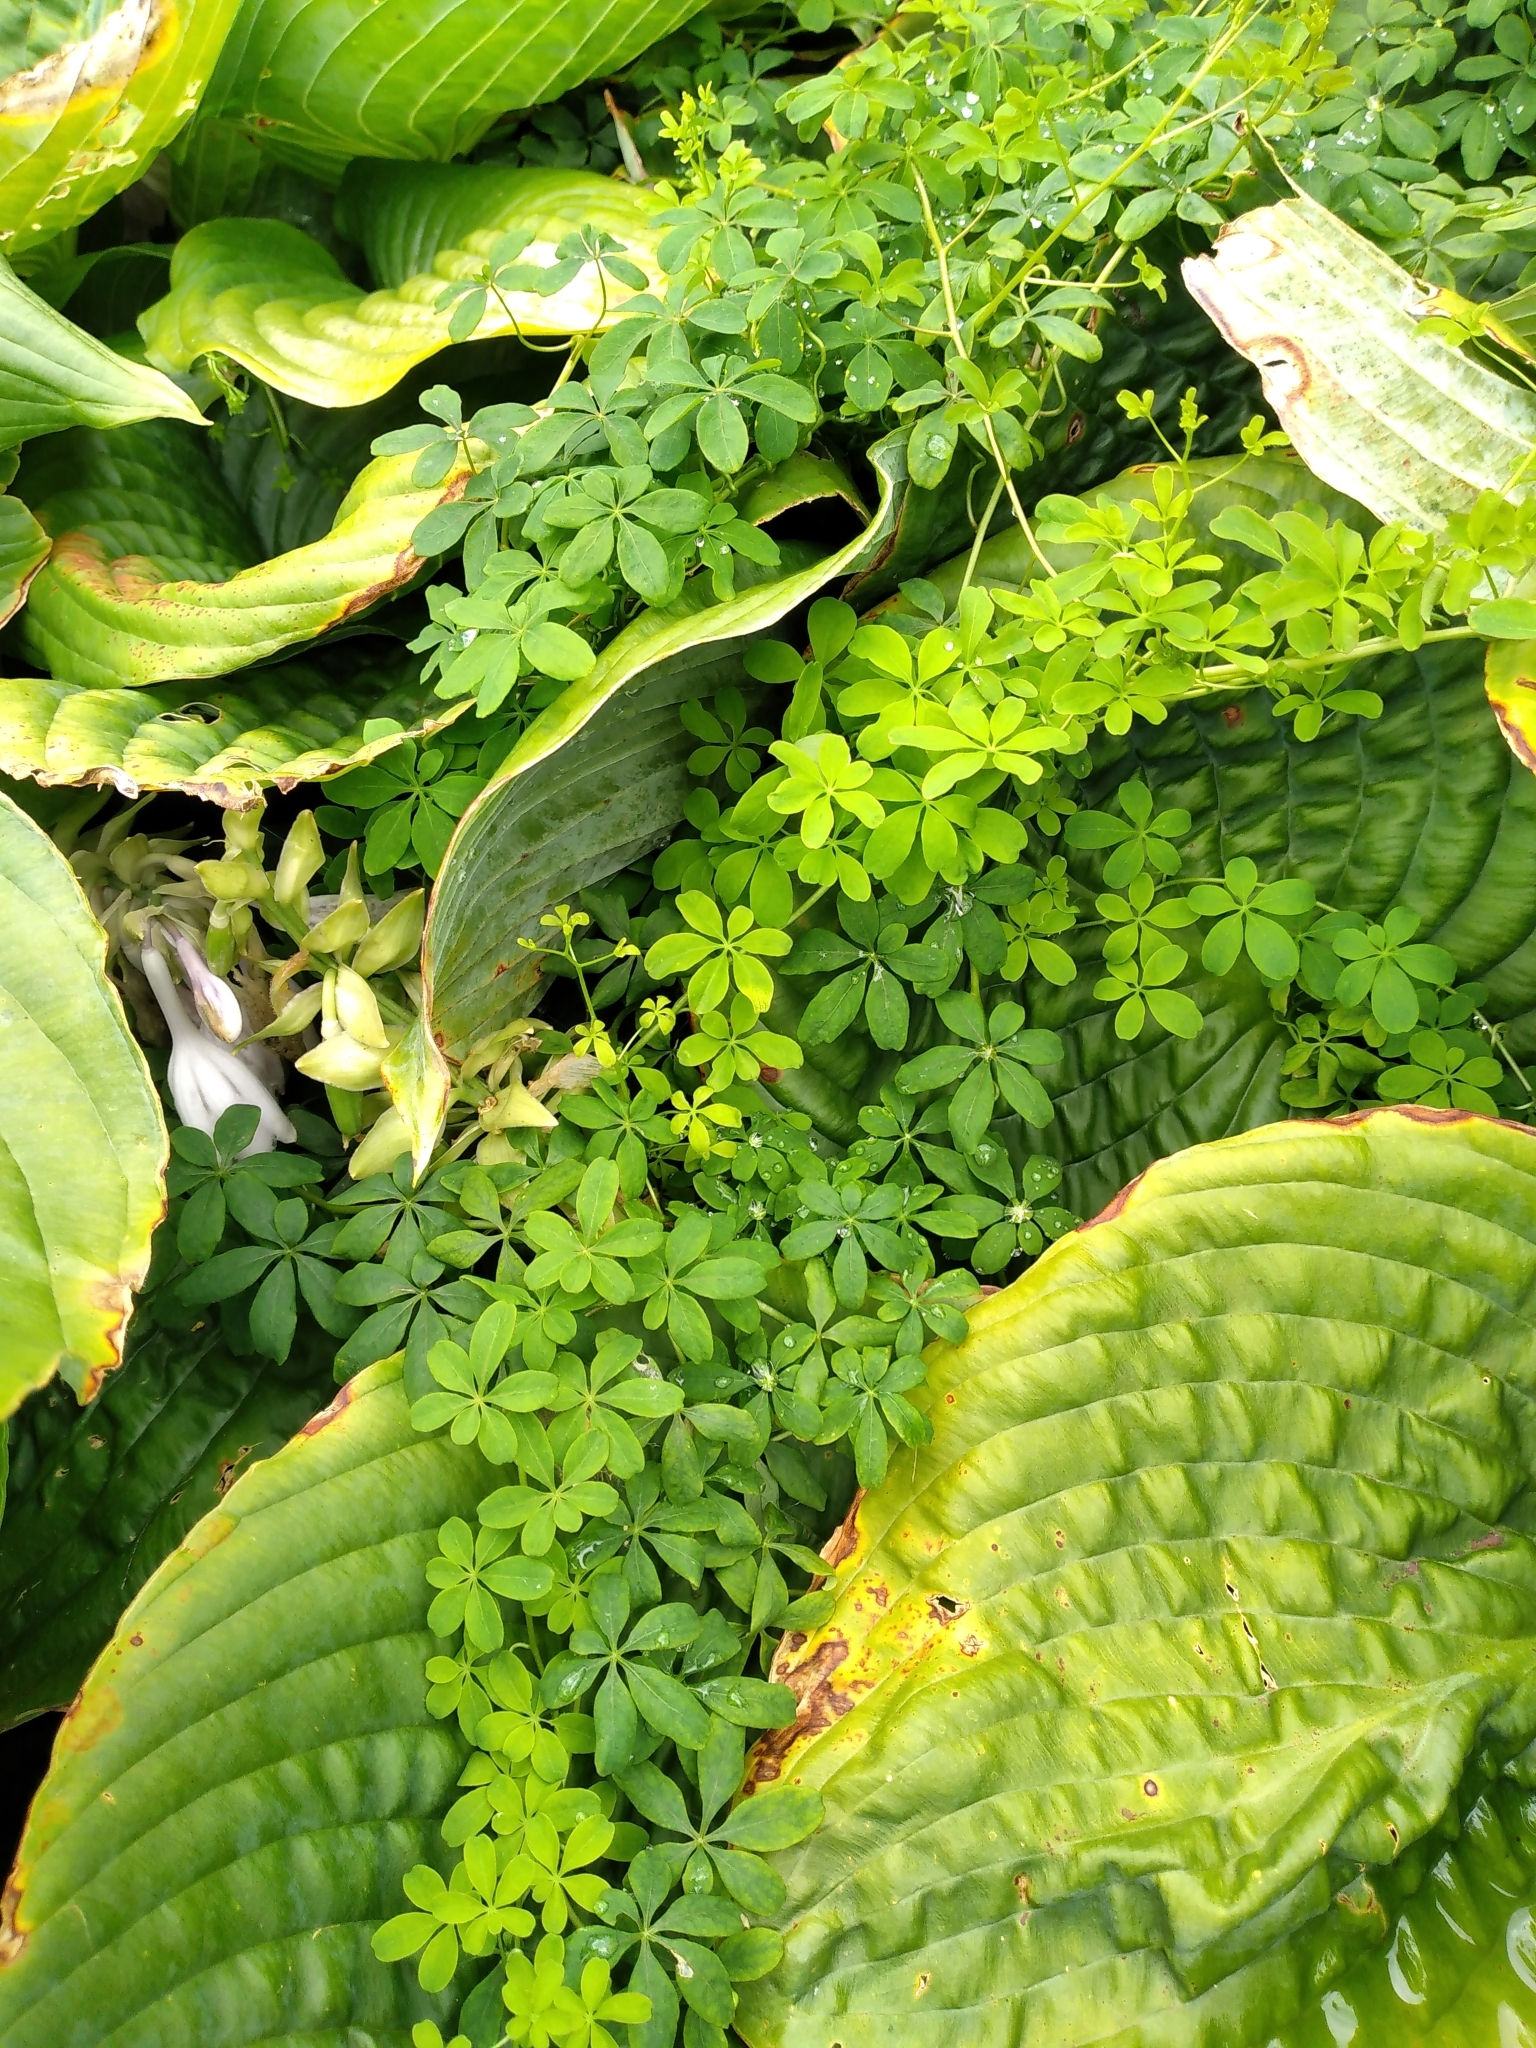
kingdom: Plantae
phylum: Tracheophyta
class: Magnoliopsida
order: Brassicales
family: Tropaeolaceae
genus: Tropaeolum
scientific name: Tropaeolum speciosum
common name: Flame nasturtium
